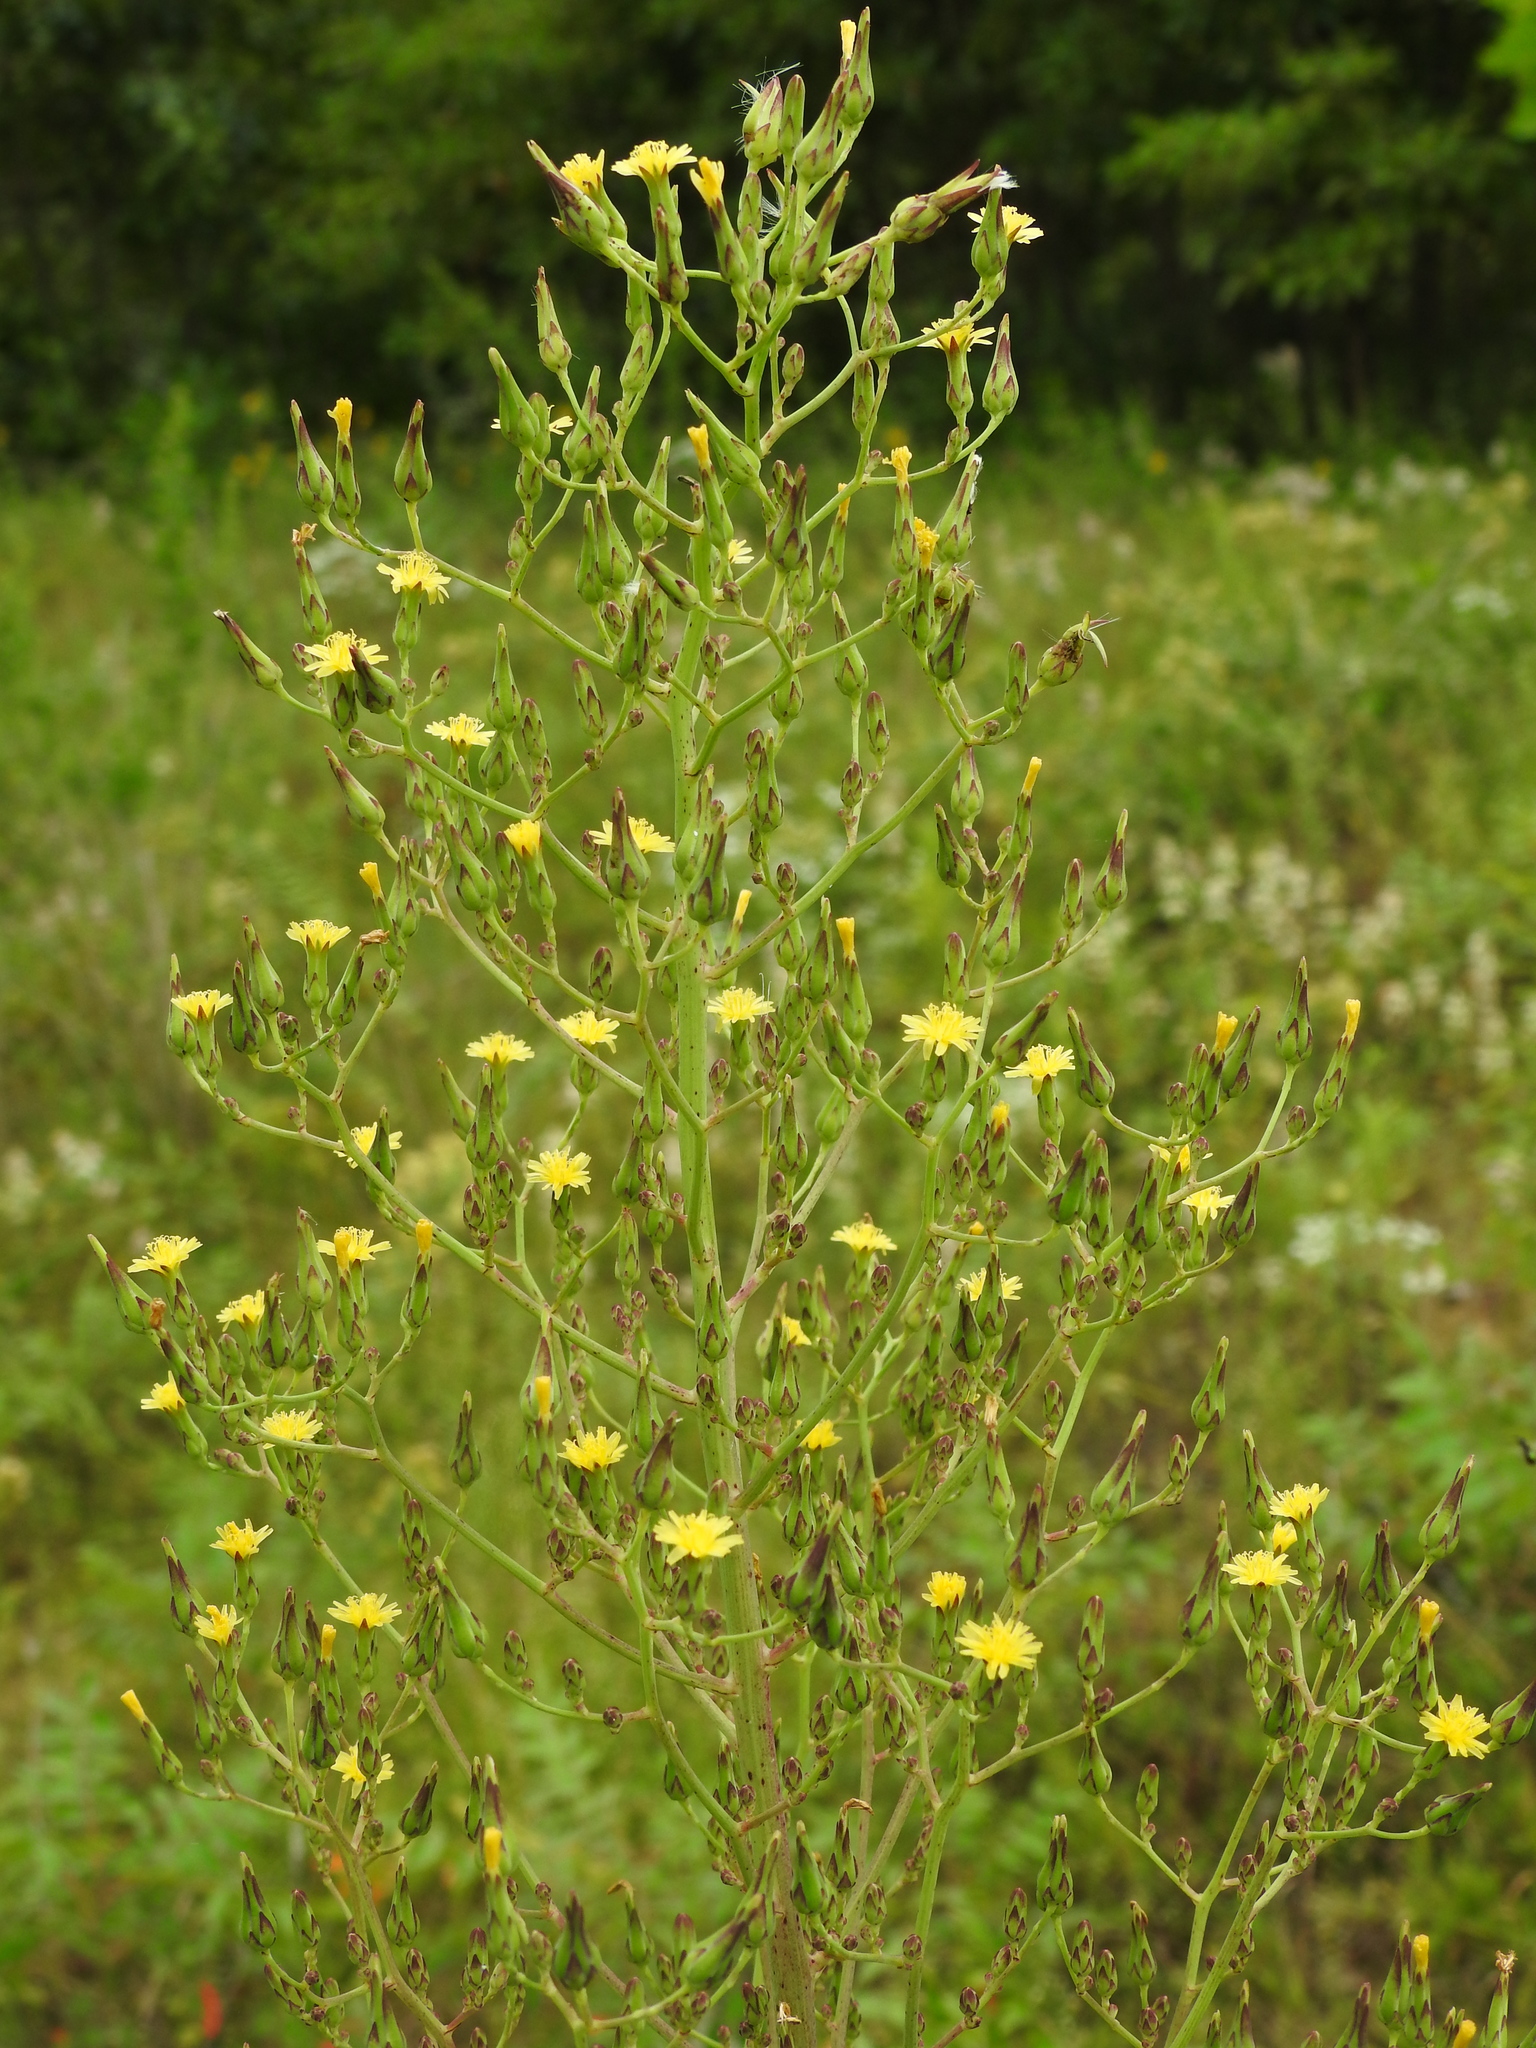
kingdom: Plantae
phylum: Tracheophyta
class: Magnoliopsida
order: Asterales
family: Asteraceae
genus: Lactuca
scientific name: Lactuca canadensis
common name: Canada lettuce
